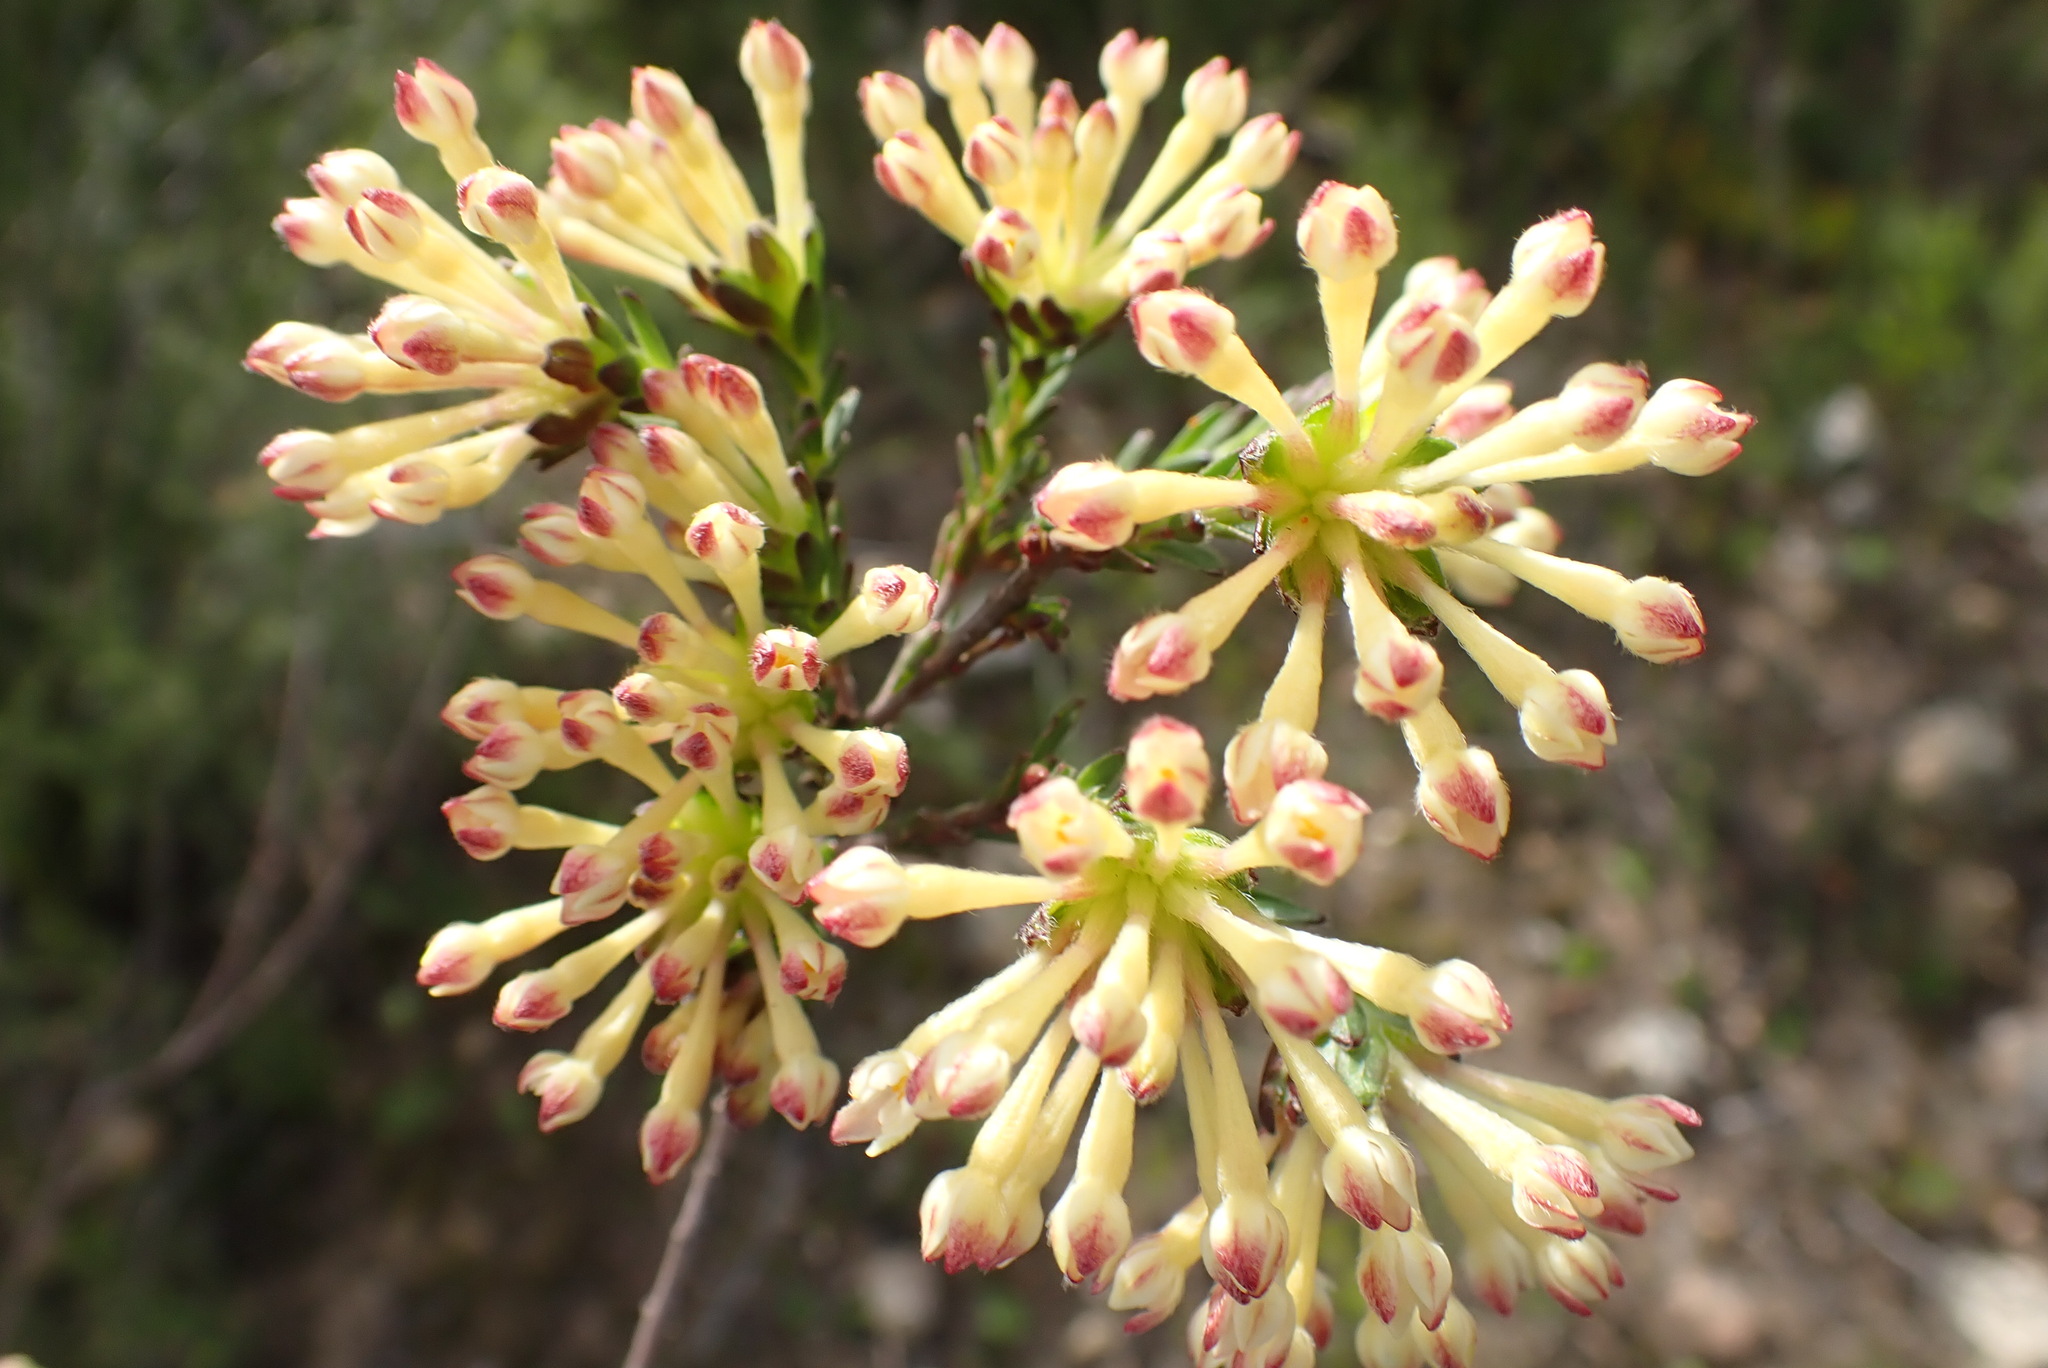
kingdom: Plantae
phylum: Tracheophyta
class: Magnoliopsida
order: Malvales
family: Thymelaeaceae
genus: Gnidia
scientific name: Gnidia squarrosa
